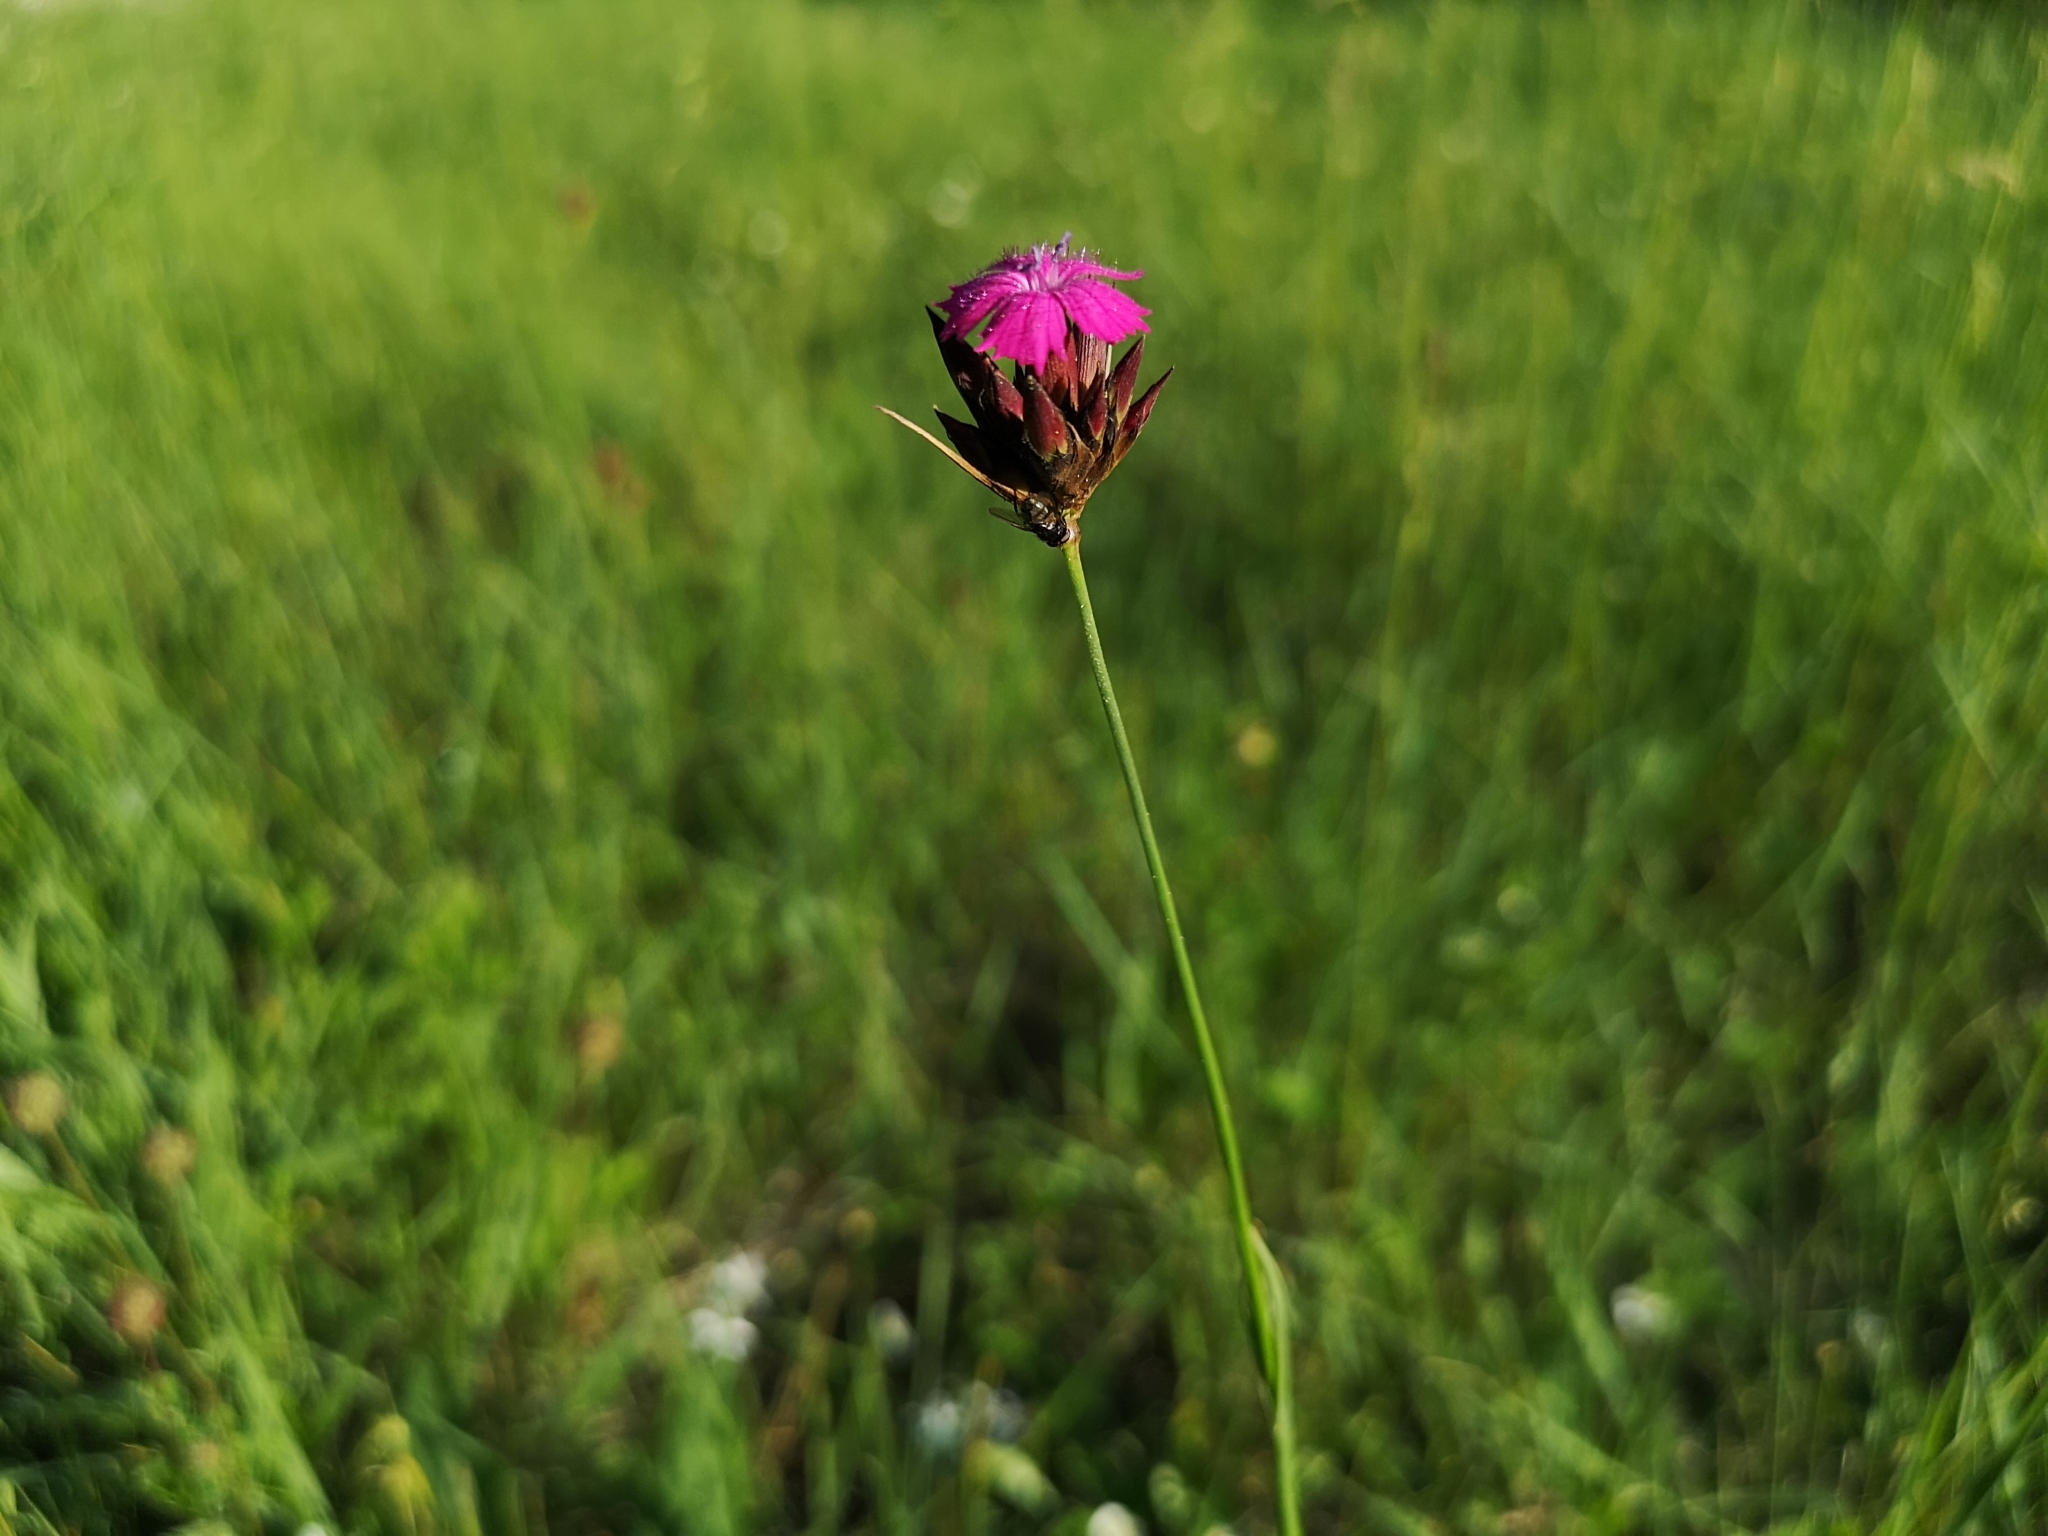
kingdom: Plantae
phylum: Tracheophyta
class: Magnoliopsida
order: Caryophyllales
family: Caryophyllaceae
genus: Dianthus
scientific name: Dianthus carthusianorum
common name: Carthusian pink
